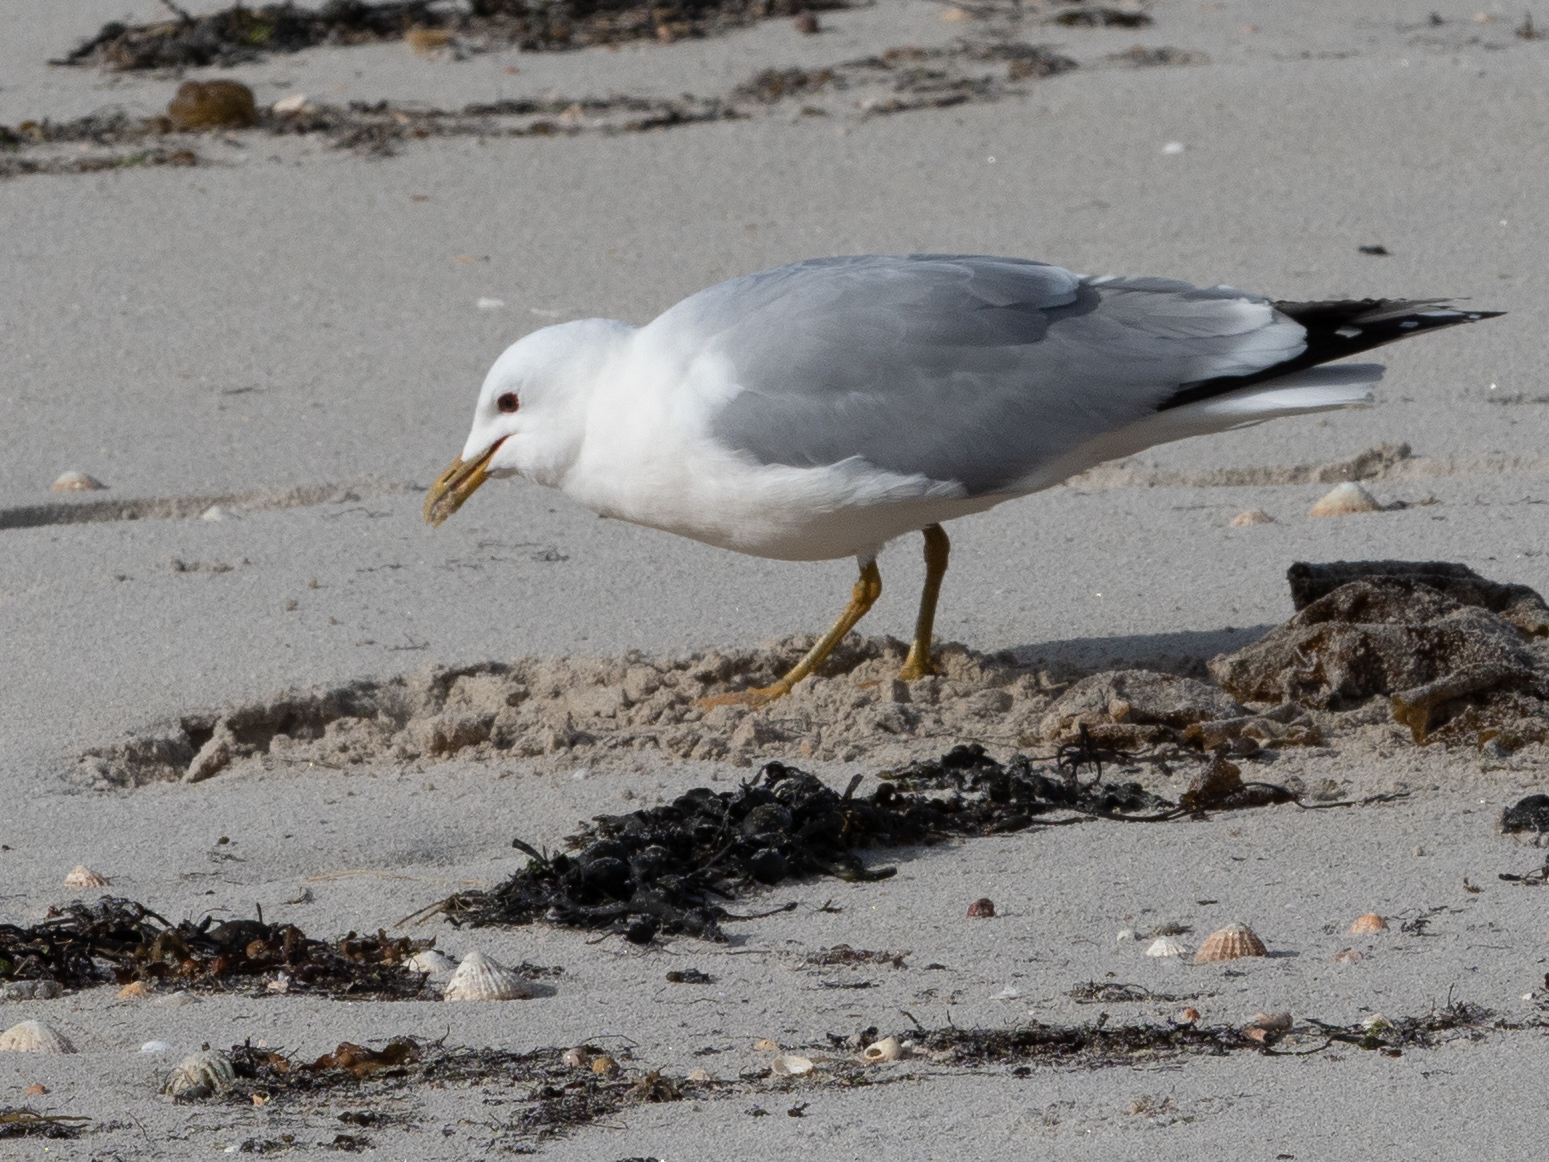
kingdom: Animalia
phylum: Chordata
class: Aves
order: Charadriiformes
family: Laridae
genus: Larus
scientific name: Larus canus
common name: Mew gull
